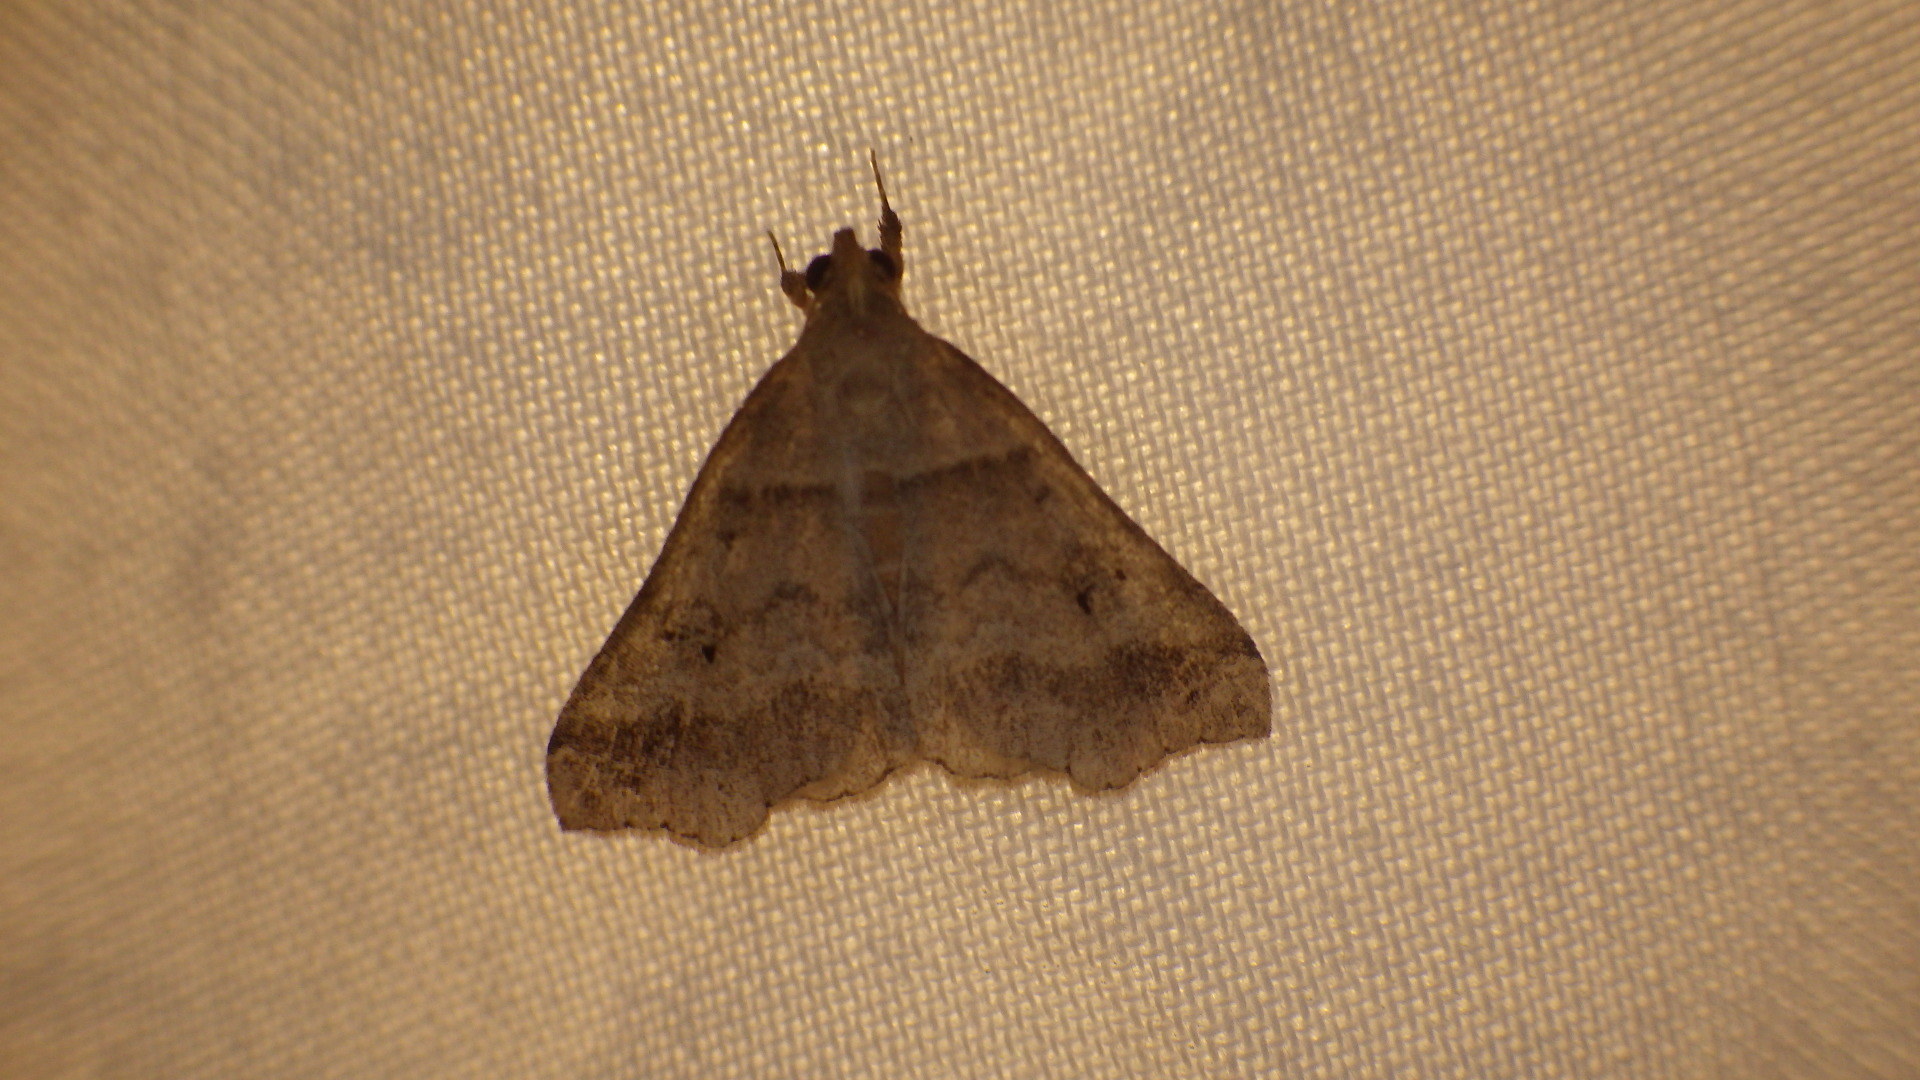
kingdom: Animalia
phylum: Arthropoda
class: Insecta
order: Lepidoptera
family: Erebidae
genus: Lascoria
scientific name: Lascoria ambigualis
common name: Ambiguous moth
